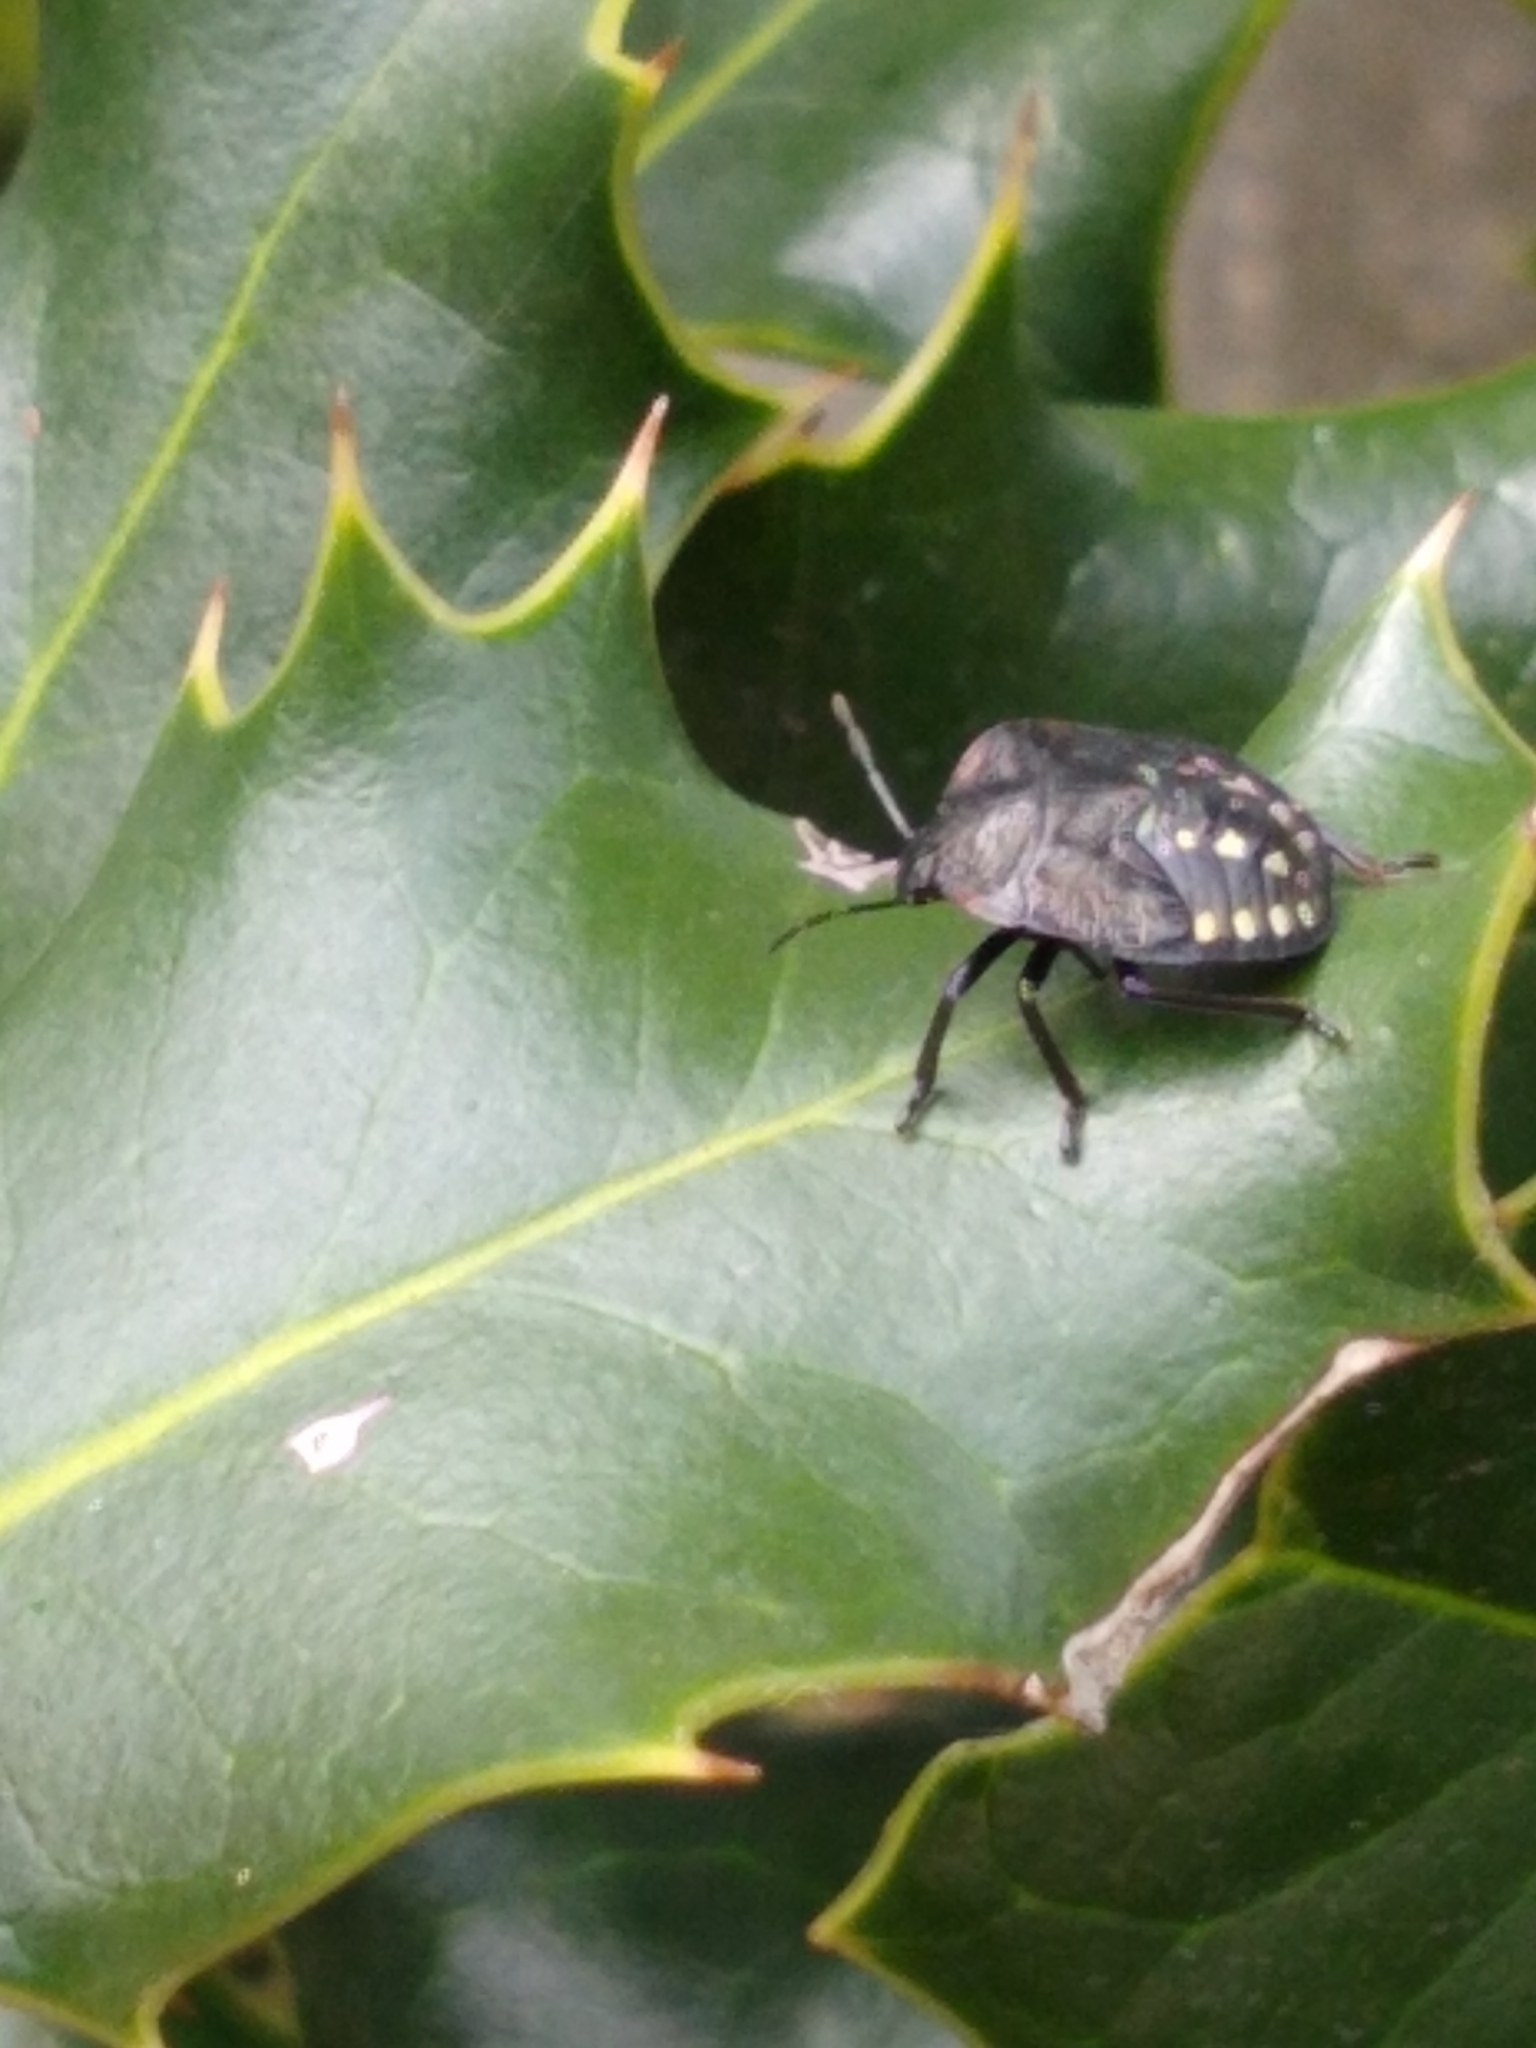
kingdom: Animalia
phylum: Arthropoda
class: Insecta
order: Hemiptera
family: Pentatomidae
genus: Nezara
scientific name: Nezara viridula
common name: Southern green stink bug
